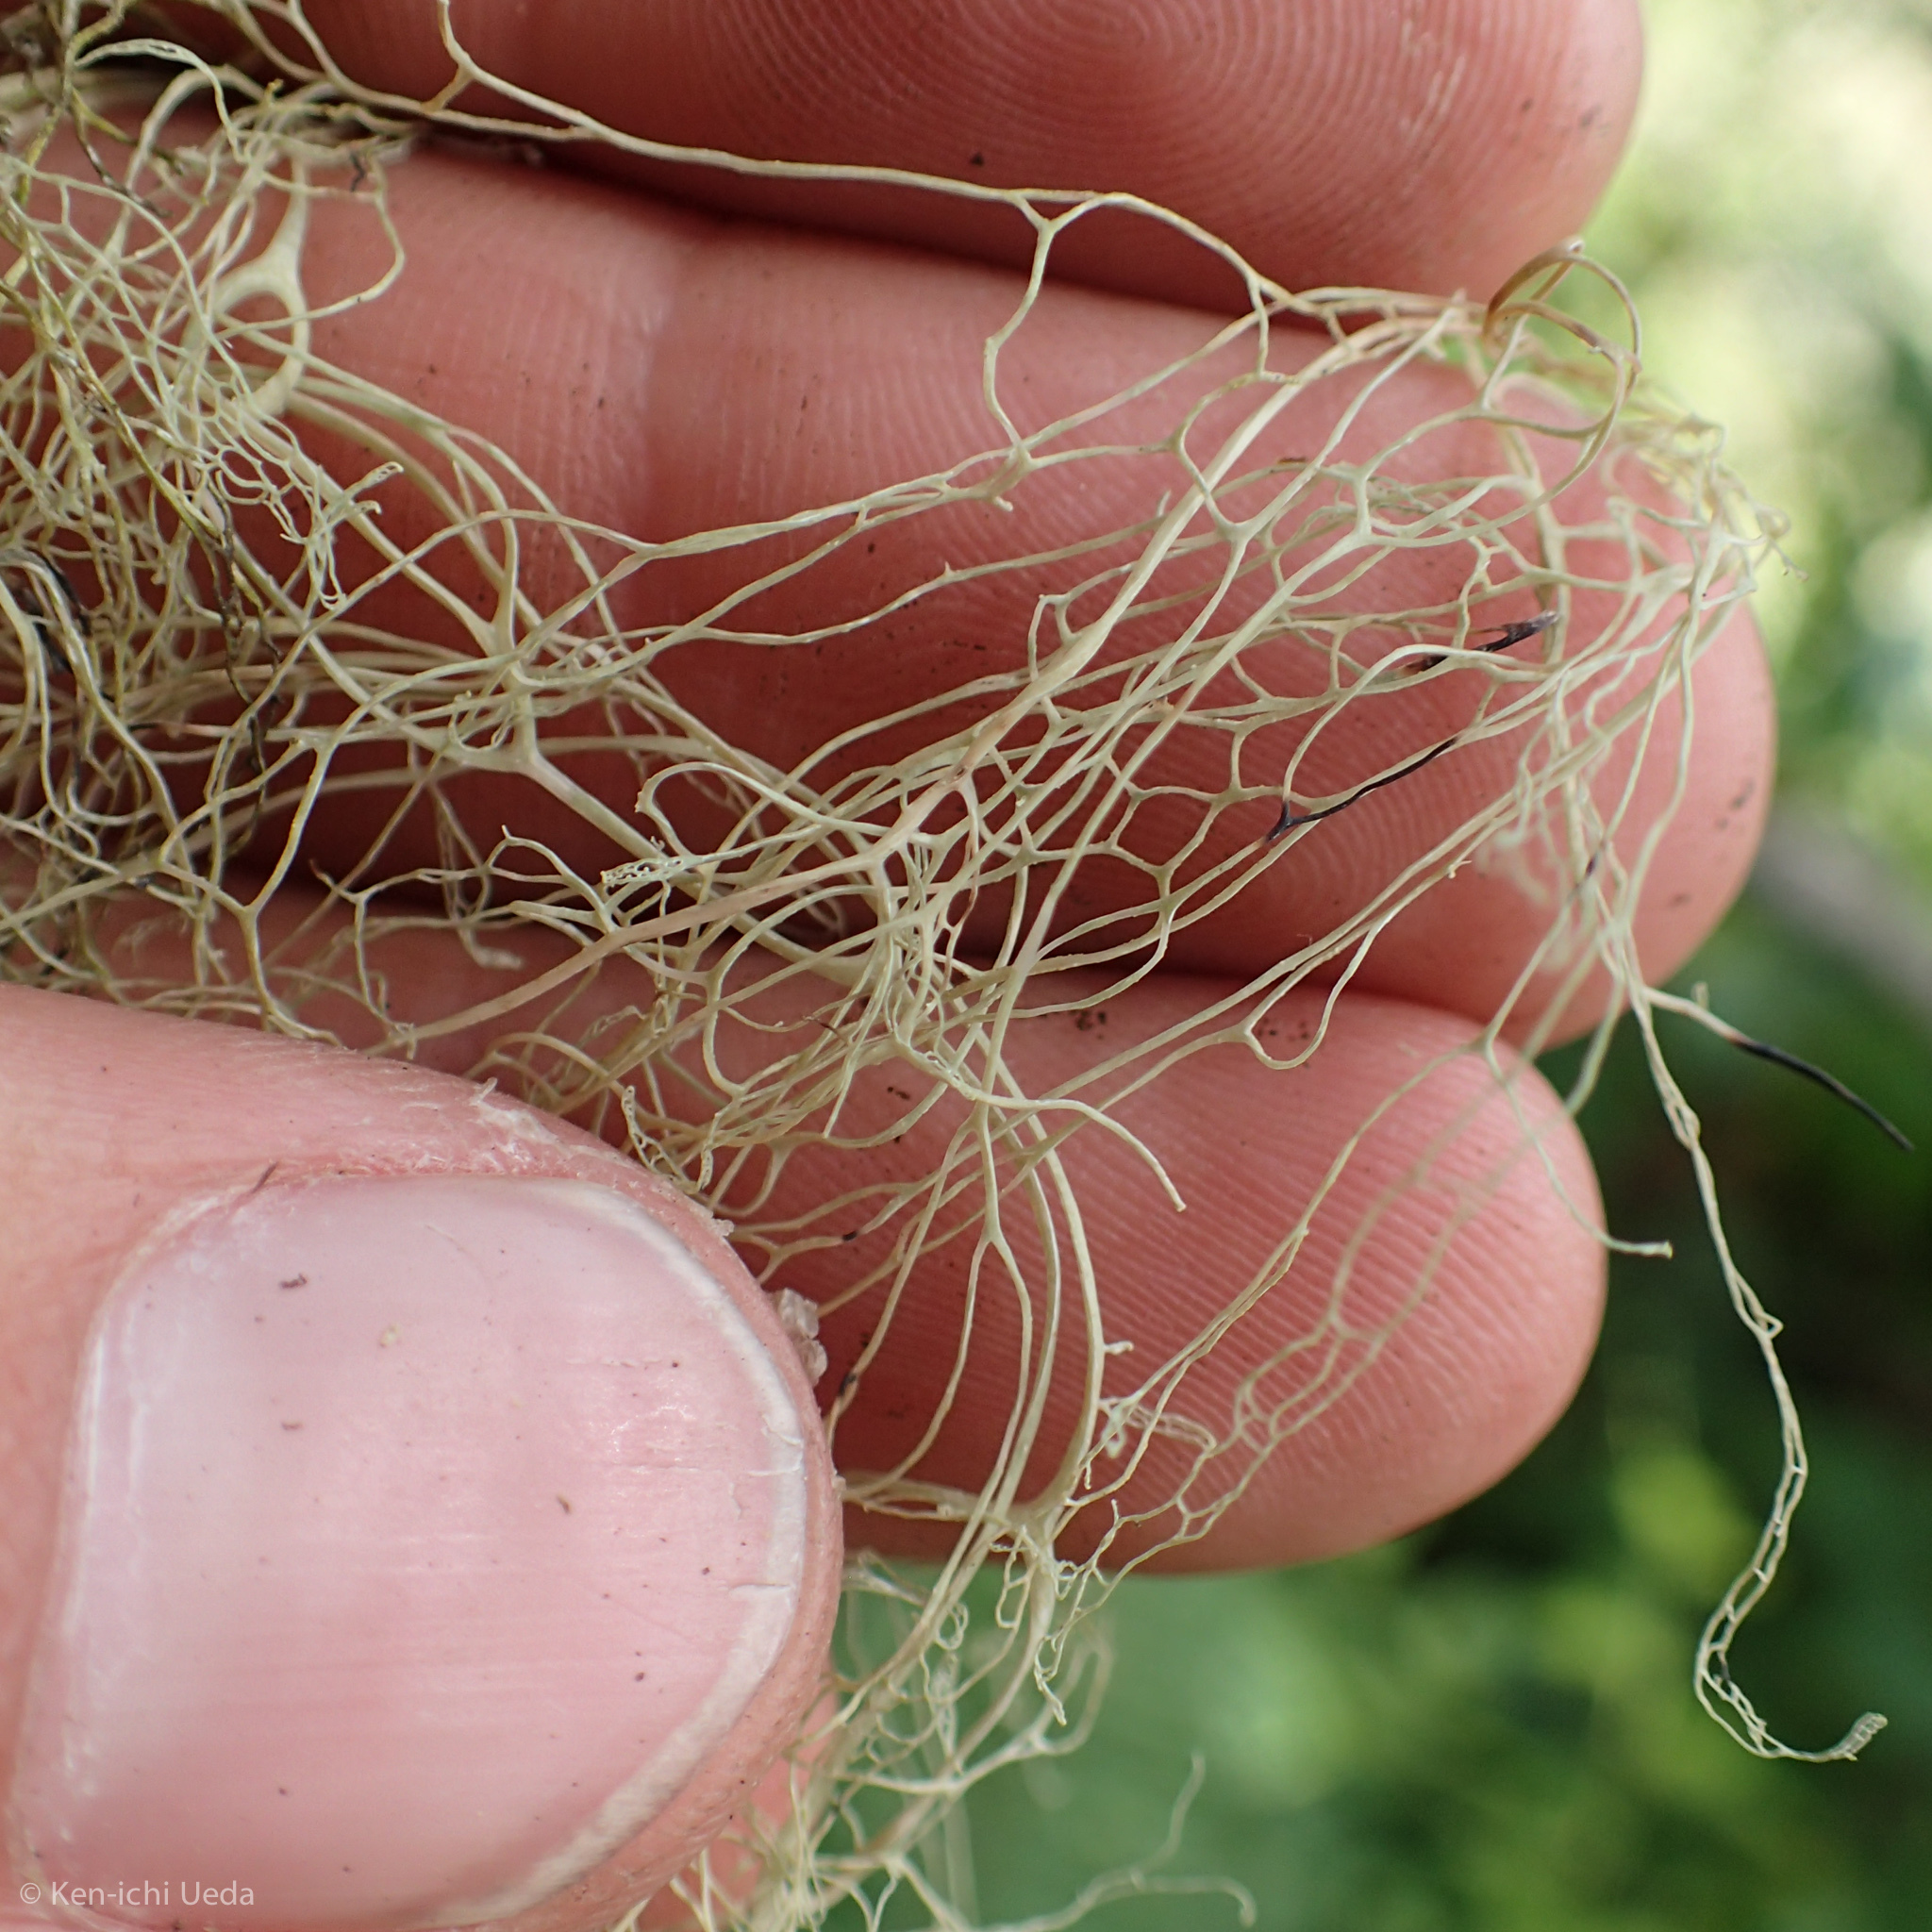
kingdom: Fungi
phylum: Ascomycota
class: Lecanoromycetes
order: Lecanorales
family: Ramalinaceae
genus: Ramalina
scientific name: Ramalina menziesii
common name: Lace lichen
